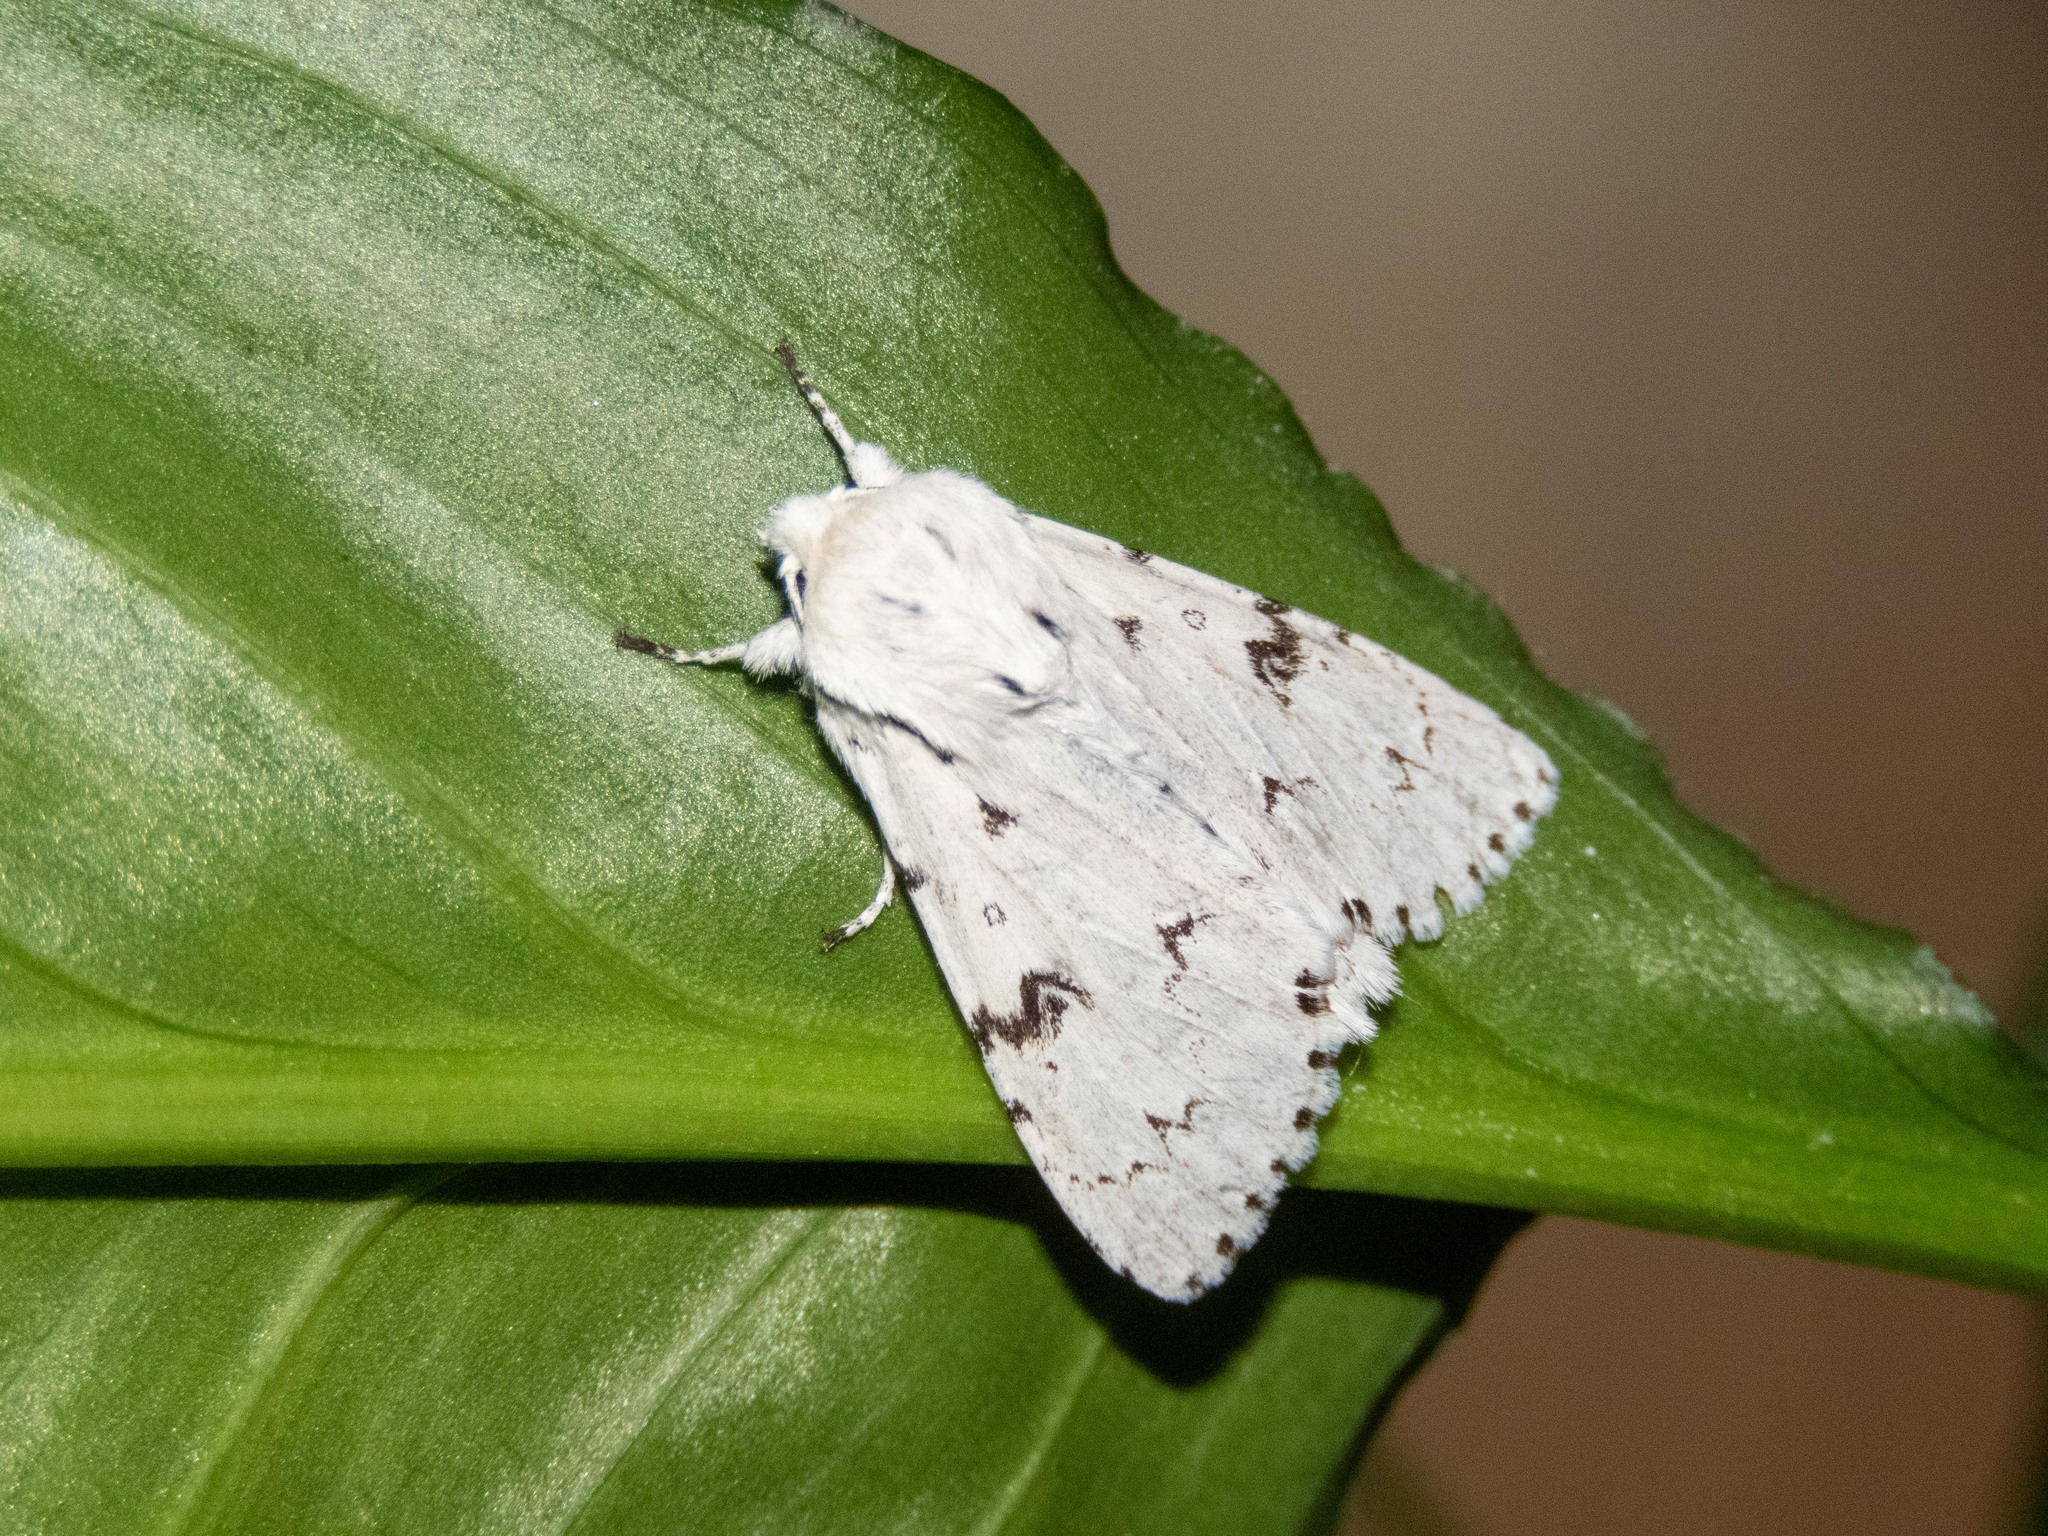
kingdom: Animalia
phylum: Arthropoda
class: Insecta
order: Lepidoptera
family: Noctuidae
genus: Acronicta
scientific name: Acronicta leporina
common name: Miller
